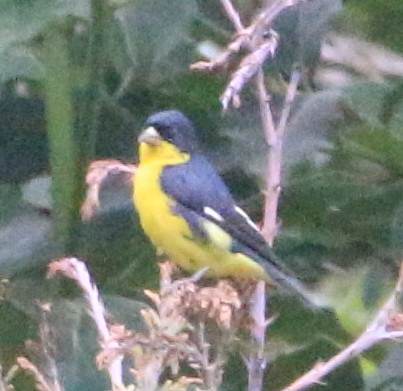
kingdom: Animalia
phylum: Chordata
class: Aves
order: Passeriformes
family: Fringillidae
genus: Spinus
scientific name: Spinus psaltria
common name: Lesser goldfinch
